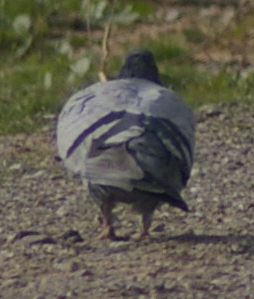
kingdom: Animalia
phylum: Chordata
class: Aves
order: Columbiformes
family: Columbidae
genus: Columba
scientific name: Columba livia
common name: Rock pigeon
